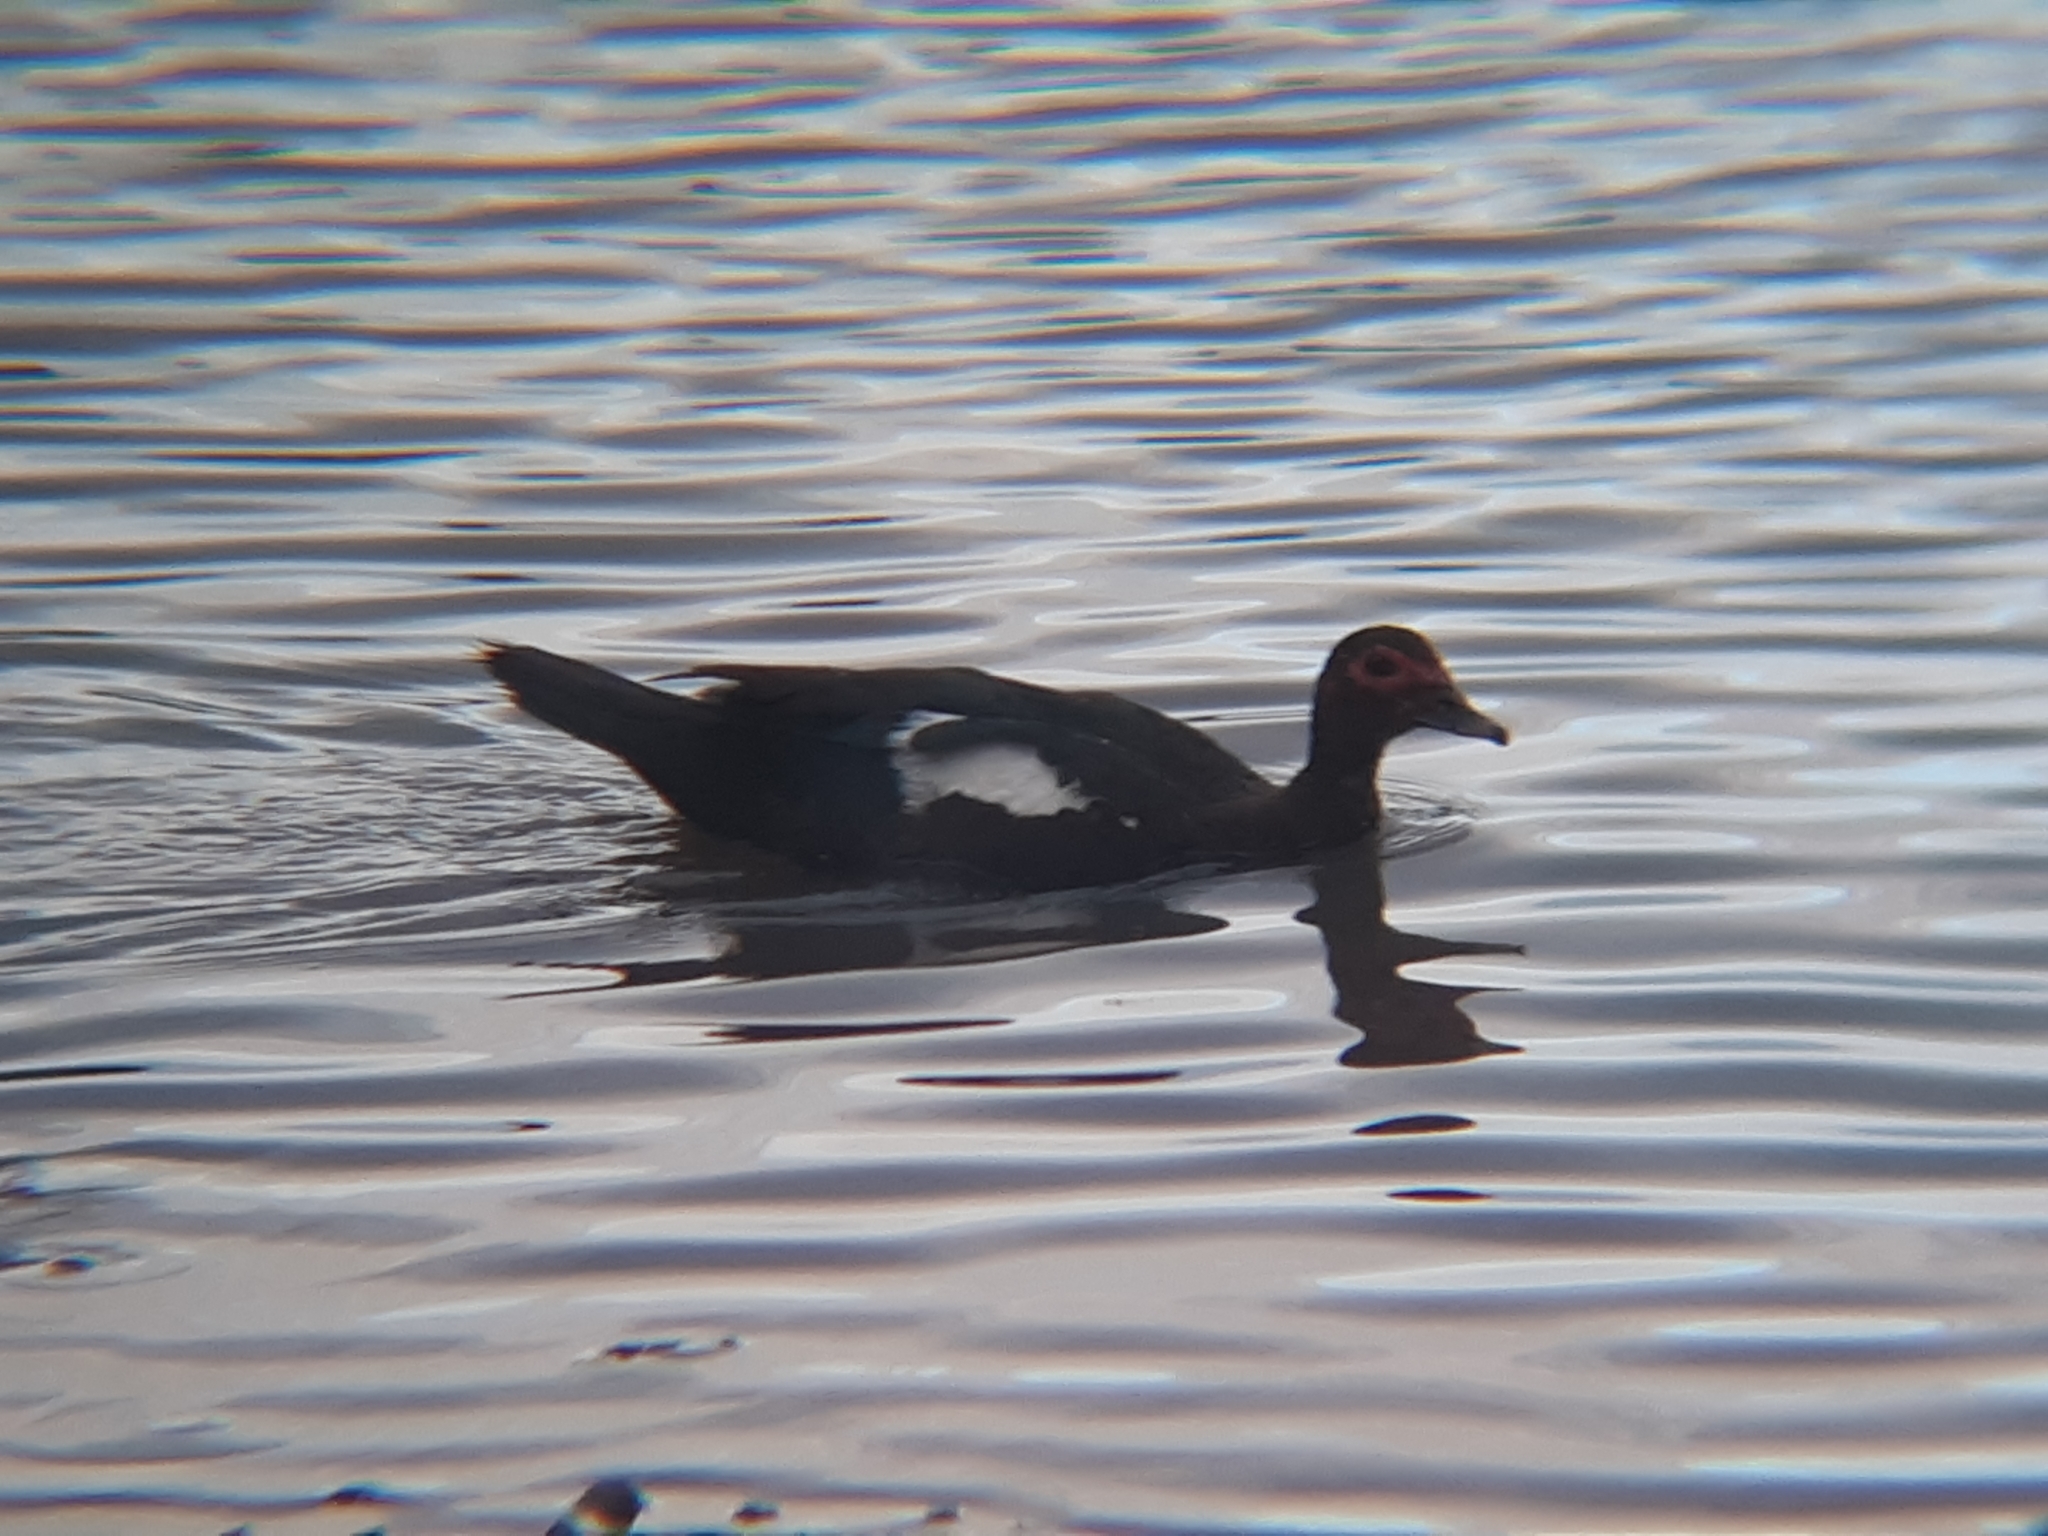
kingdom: Animalia
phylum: Chordata
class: Aves
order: Anseriformes
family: Anatidae
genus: Cairina
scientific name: Cairina moschata
